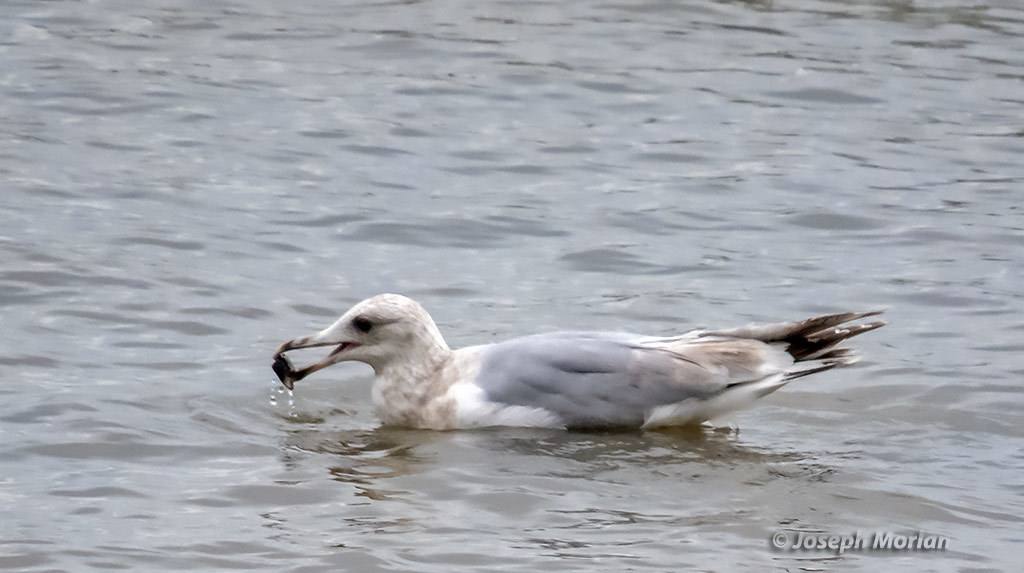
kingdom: Animalia
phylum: Chordata
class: Aves
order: Charadriiformes
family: Laridae
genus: Larus
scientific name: Larus glaucoides
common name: Iceland gull
